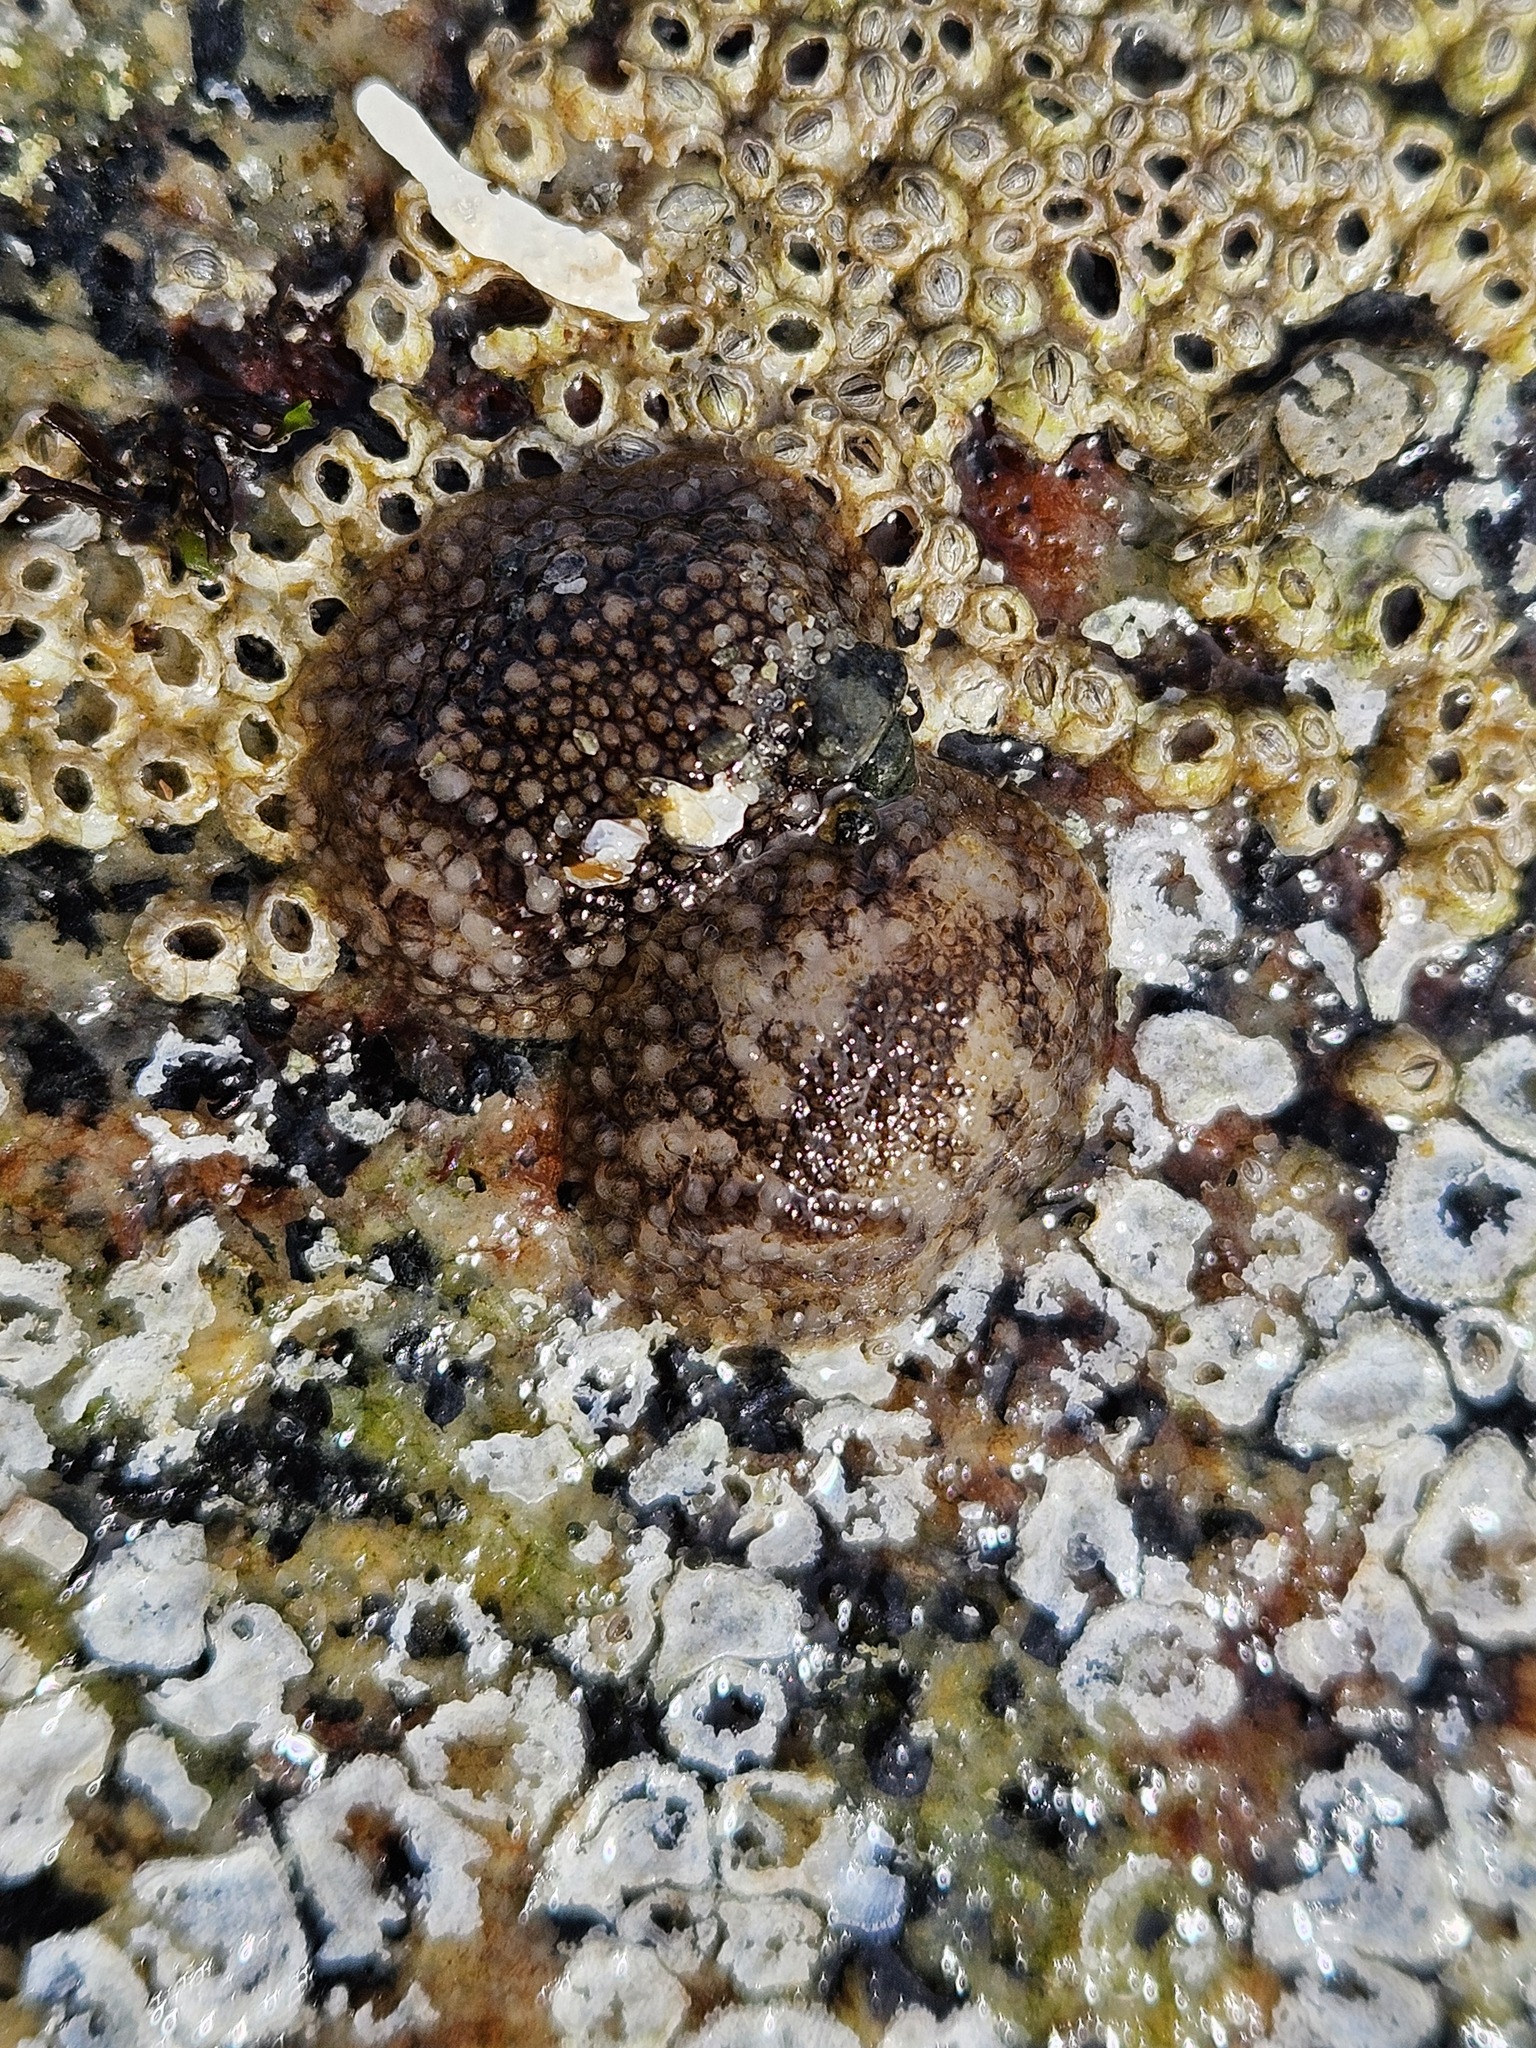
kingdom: Animalia
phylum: Mollusca
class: Gastropoda
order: Nudibranchia
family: Onchidorididae
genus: Onchidoris
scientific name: Onchidoris bilamellata
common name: Barnacle-eating onchidoris
